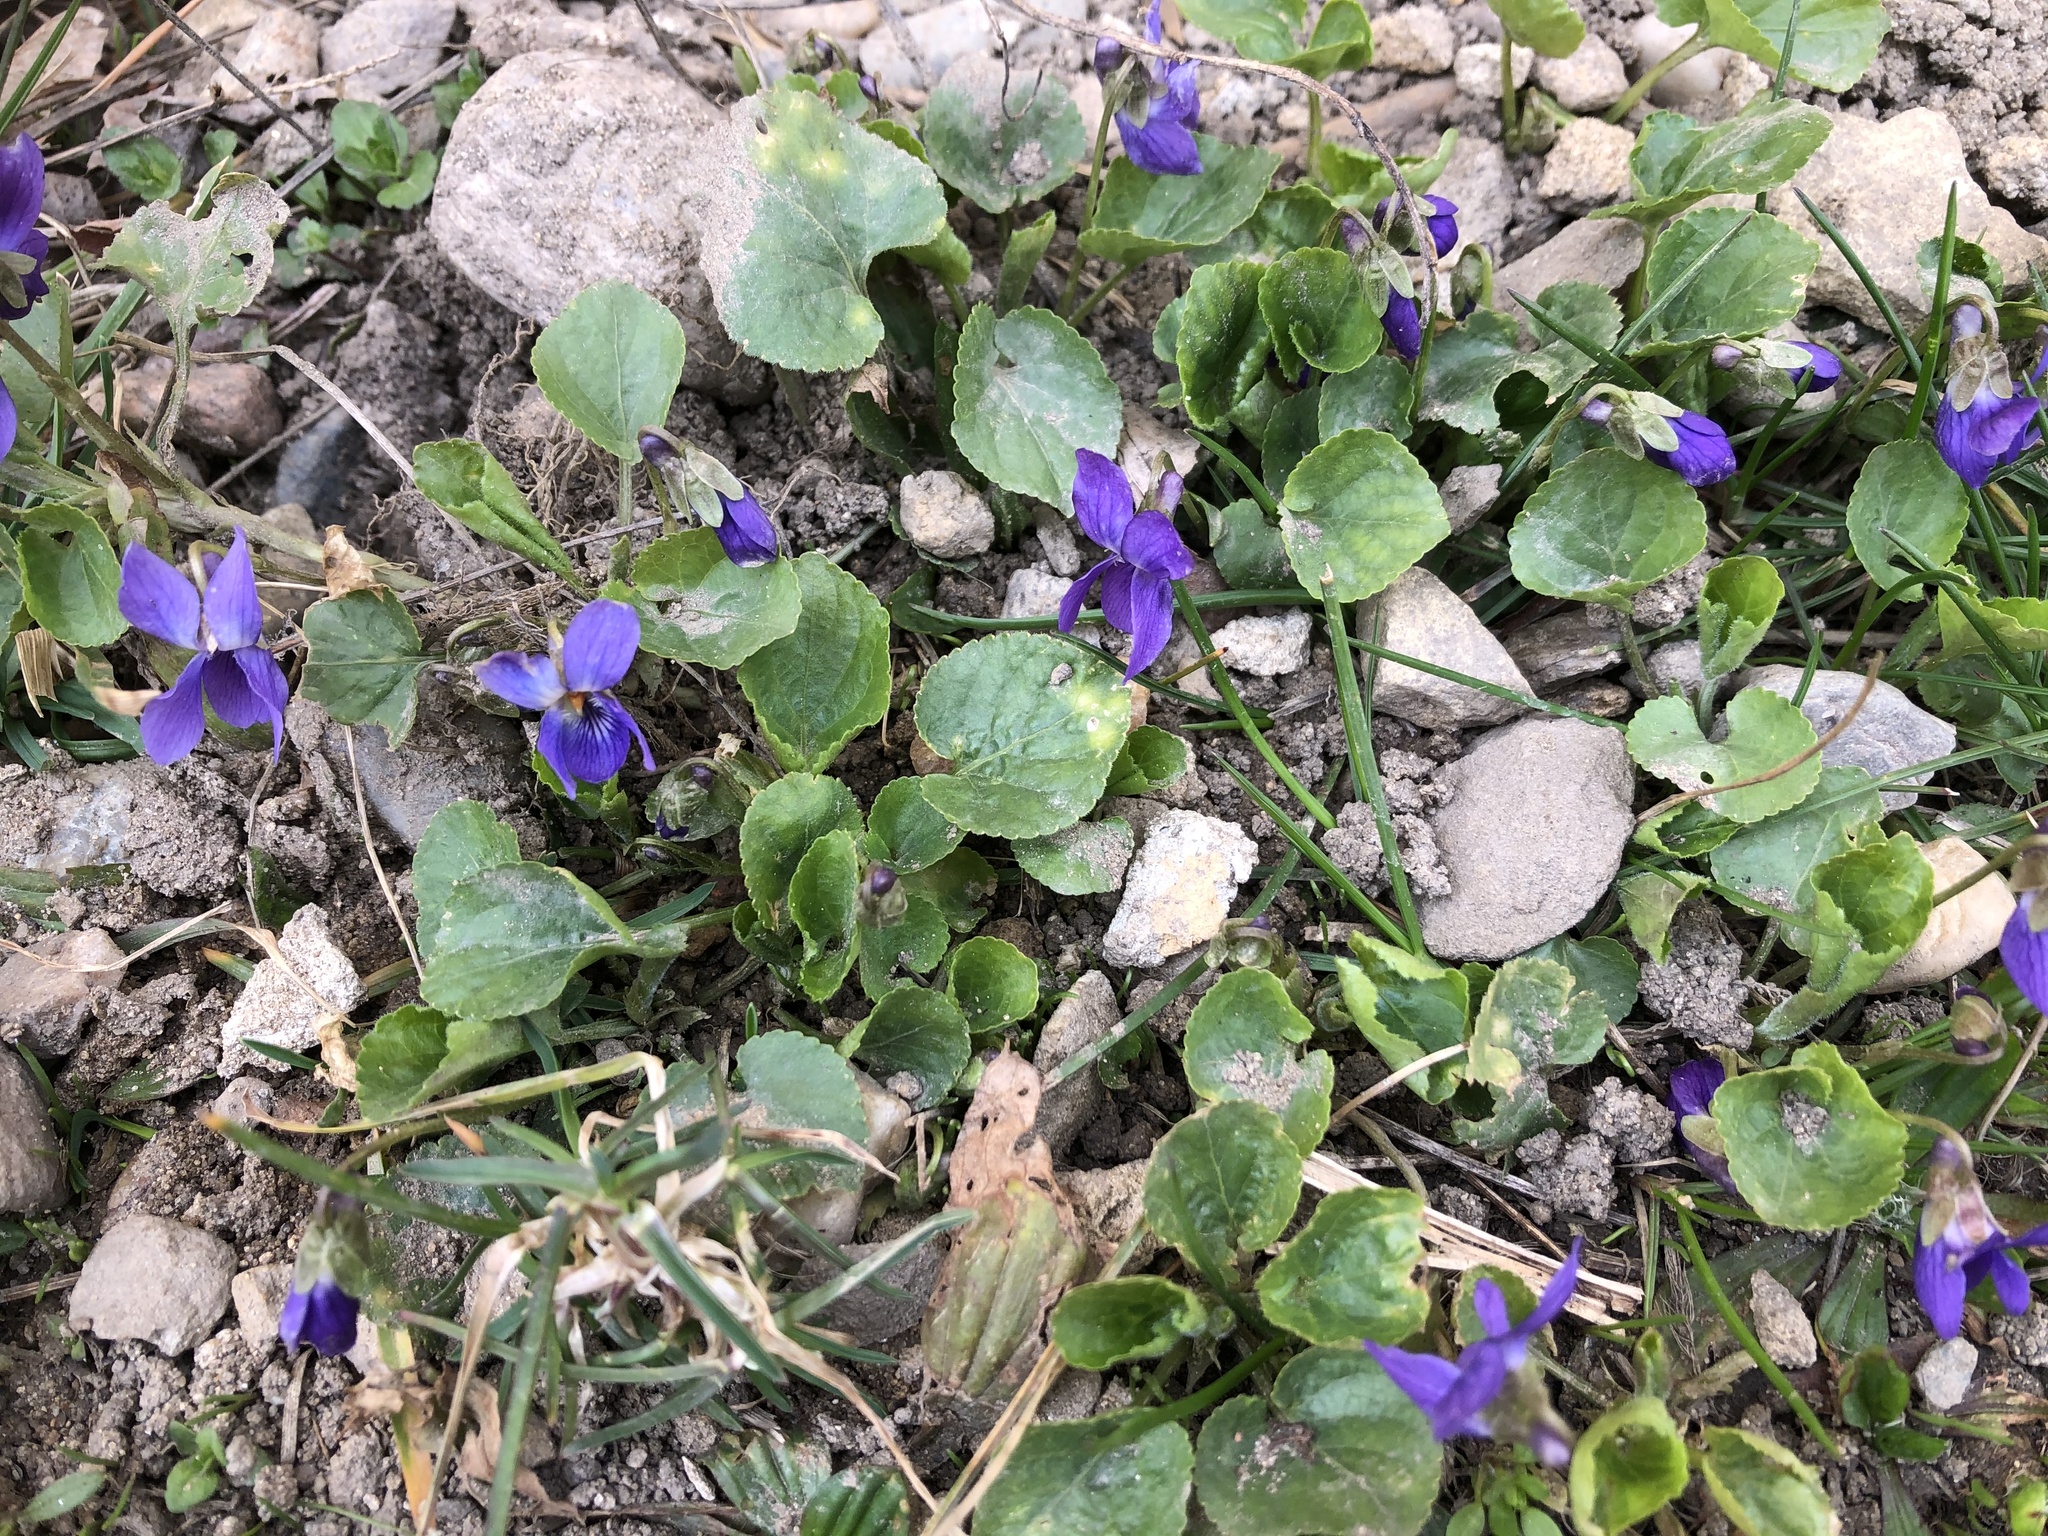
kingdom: Plantae
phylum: Tracheophyta
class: Magnoliopsida
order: Malpighiales
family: Violaceae
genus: Viola
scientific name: Viola odorata
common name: Sweet violet
